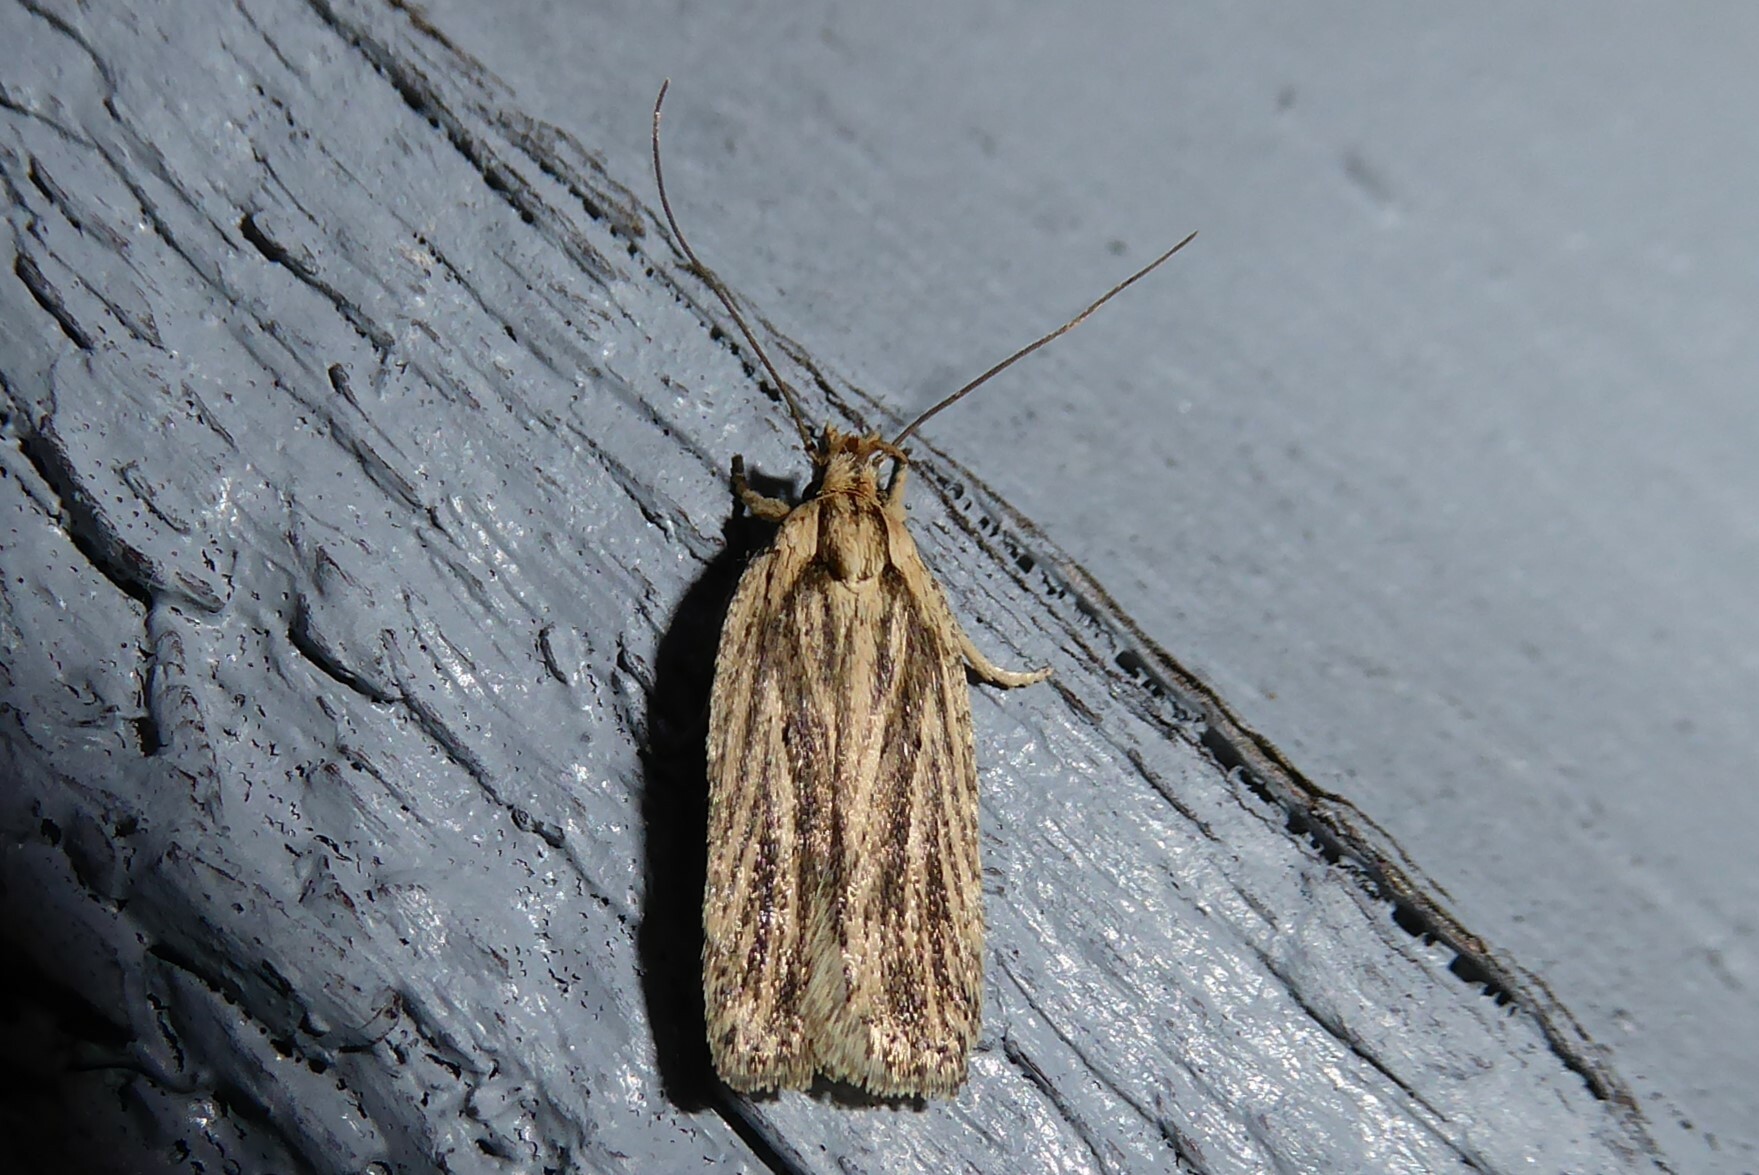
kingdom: Animalia
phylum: Arthropoda
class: Insecta
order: Lepidoptera
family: Depressariidae
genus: Agonopterix
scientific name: Agonopterix
